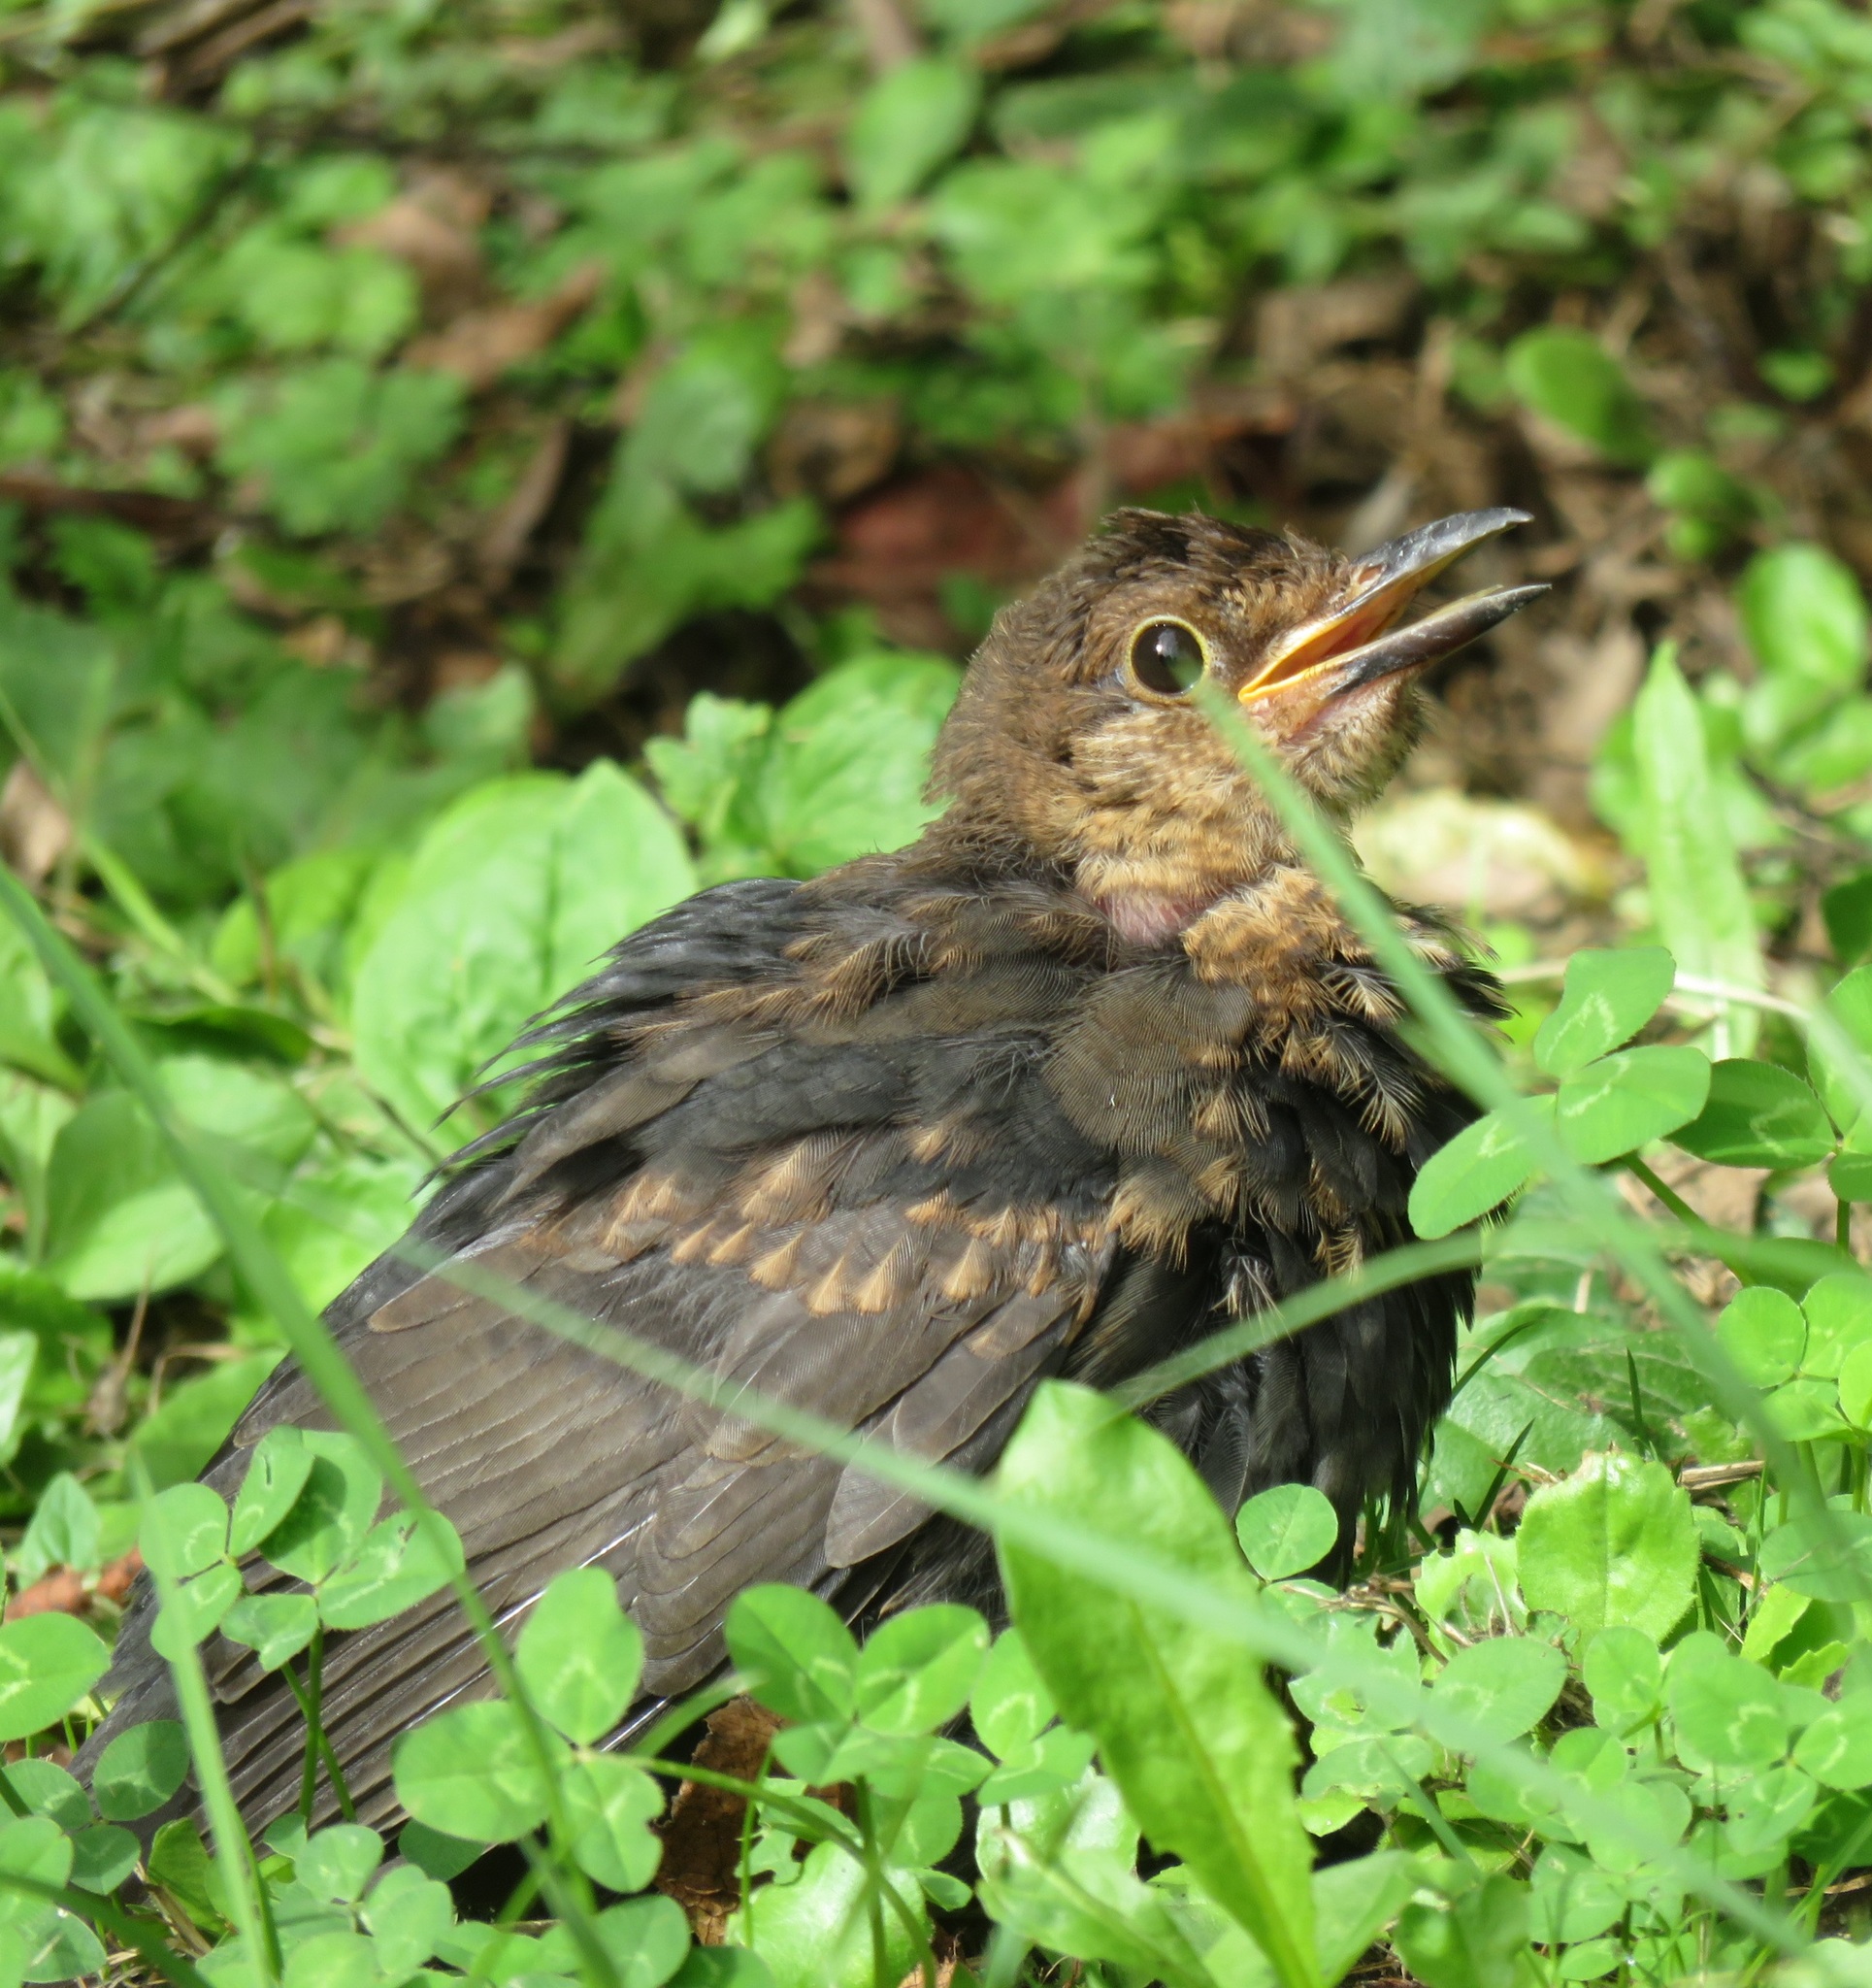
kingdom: Animalia
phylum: Chordata
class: Aves
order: Passeriformes
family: Turdidae
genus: Turdus
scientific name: Turdus merula
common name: Common blackbird
